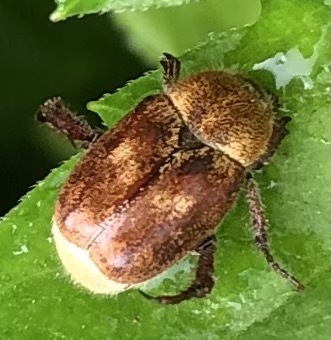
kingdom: Animalia
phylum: Arthropoda
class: Insecta
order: Coleoptera
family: Scarabaeidae
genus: Hoplia
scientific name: Hoplia trifasciata
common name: Three-lined hoplia
